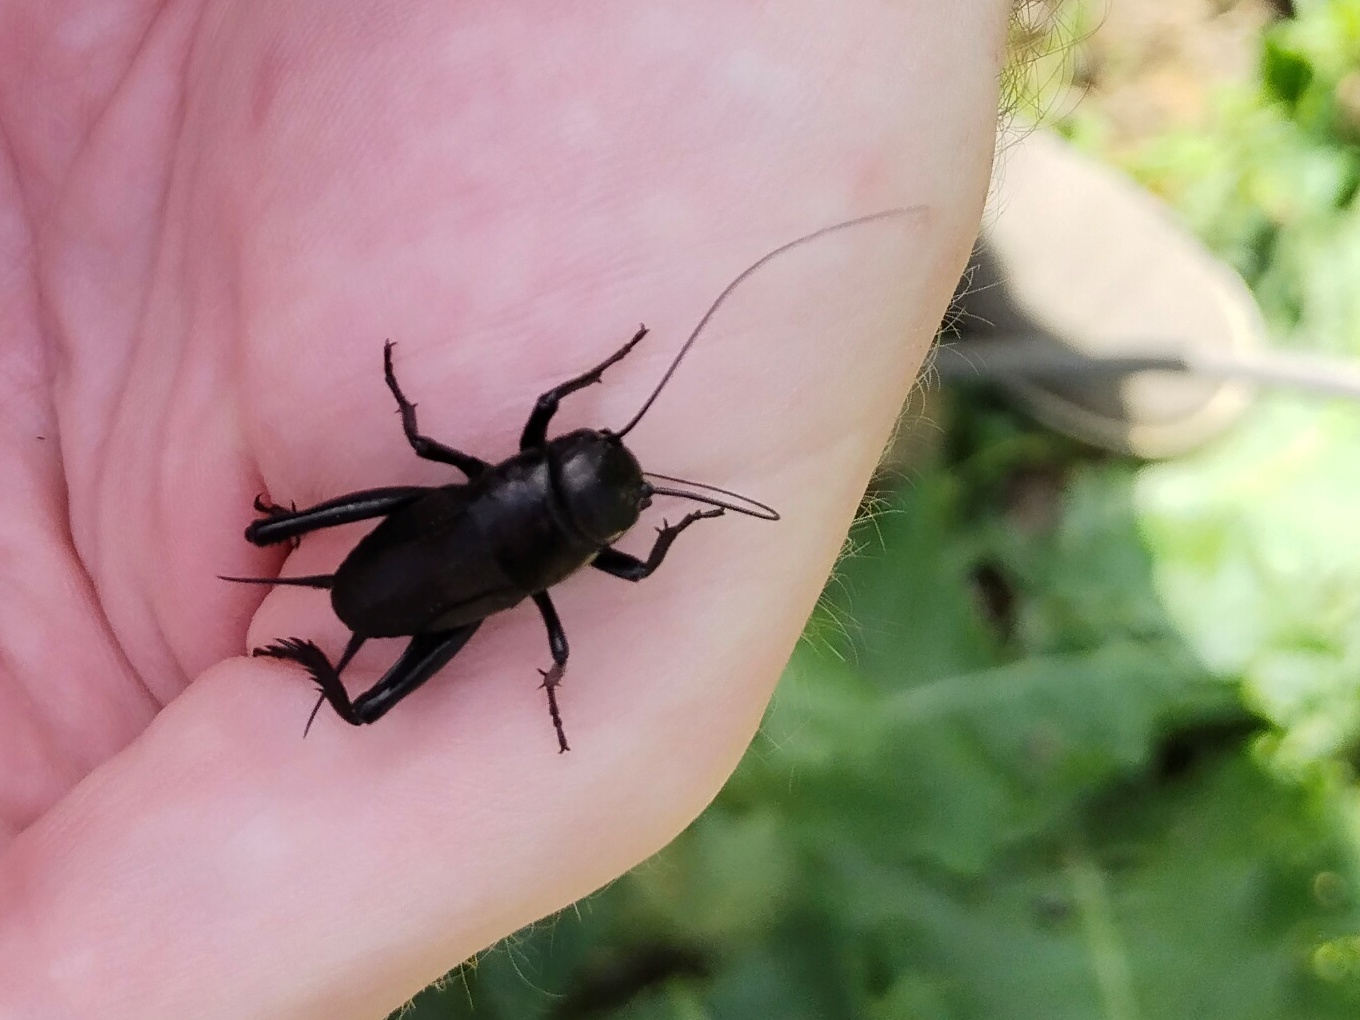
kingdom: Animalia
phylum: Arthropoda
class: Insecta
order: Orthoptera
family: Gryllidae
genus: Gryllus
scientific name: Gryllus campestris
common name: Field cricket
